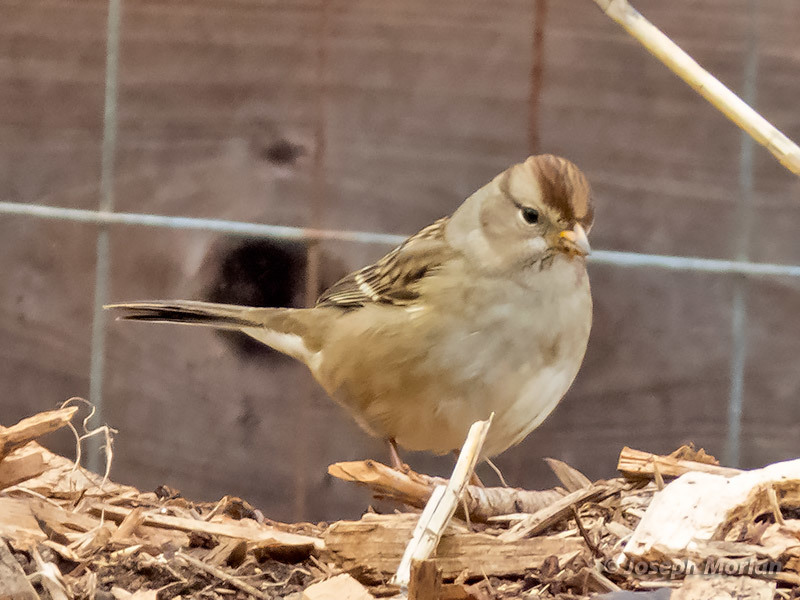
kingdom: Animalia
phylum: Chordata
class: Aves
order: Passeriformes
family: Passerellidae
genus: Zonotrichia
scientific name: Zonotrichia leucophrys
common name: White-crowned sparrow
